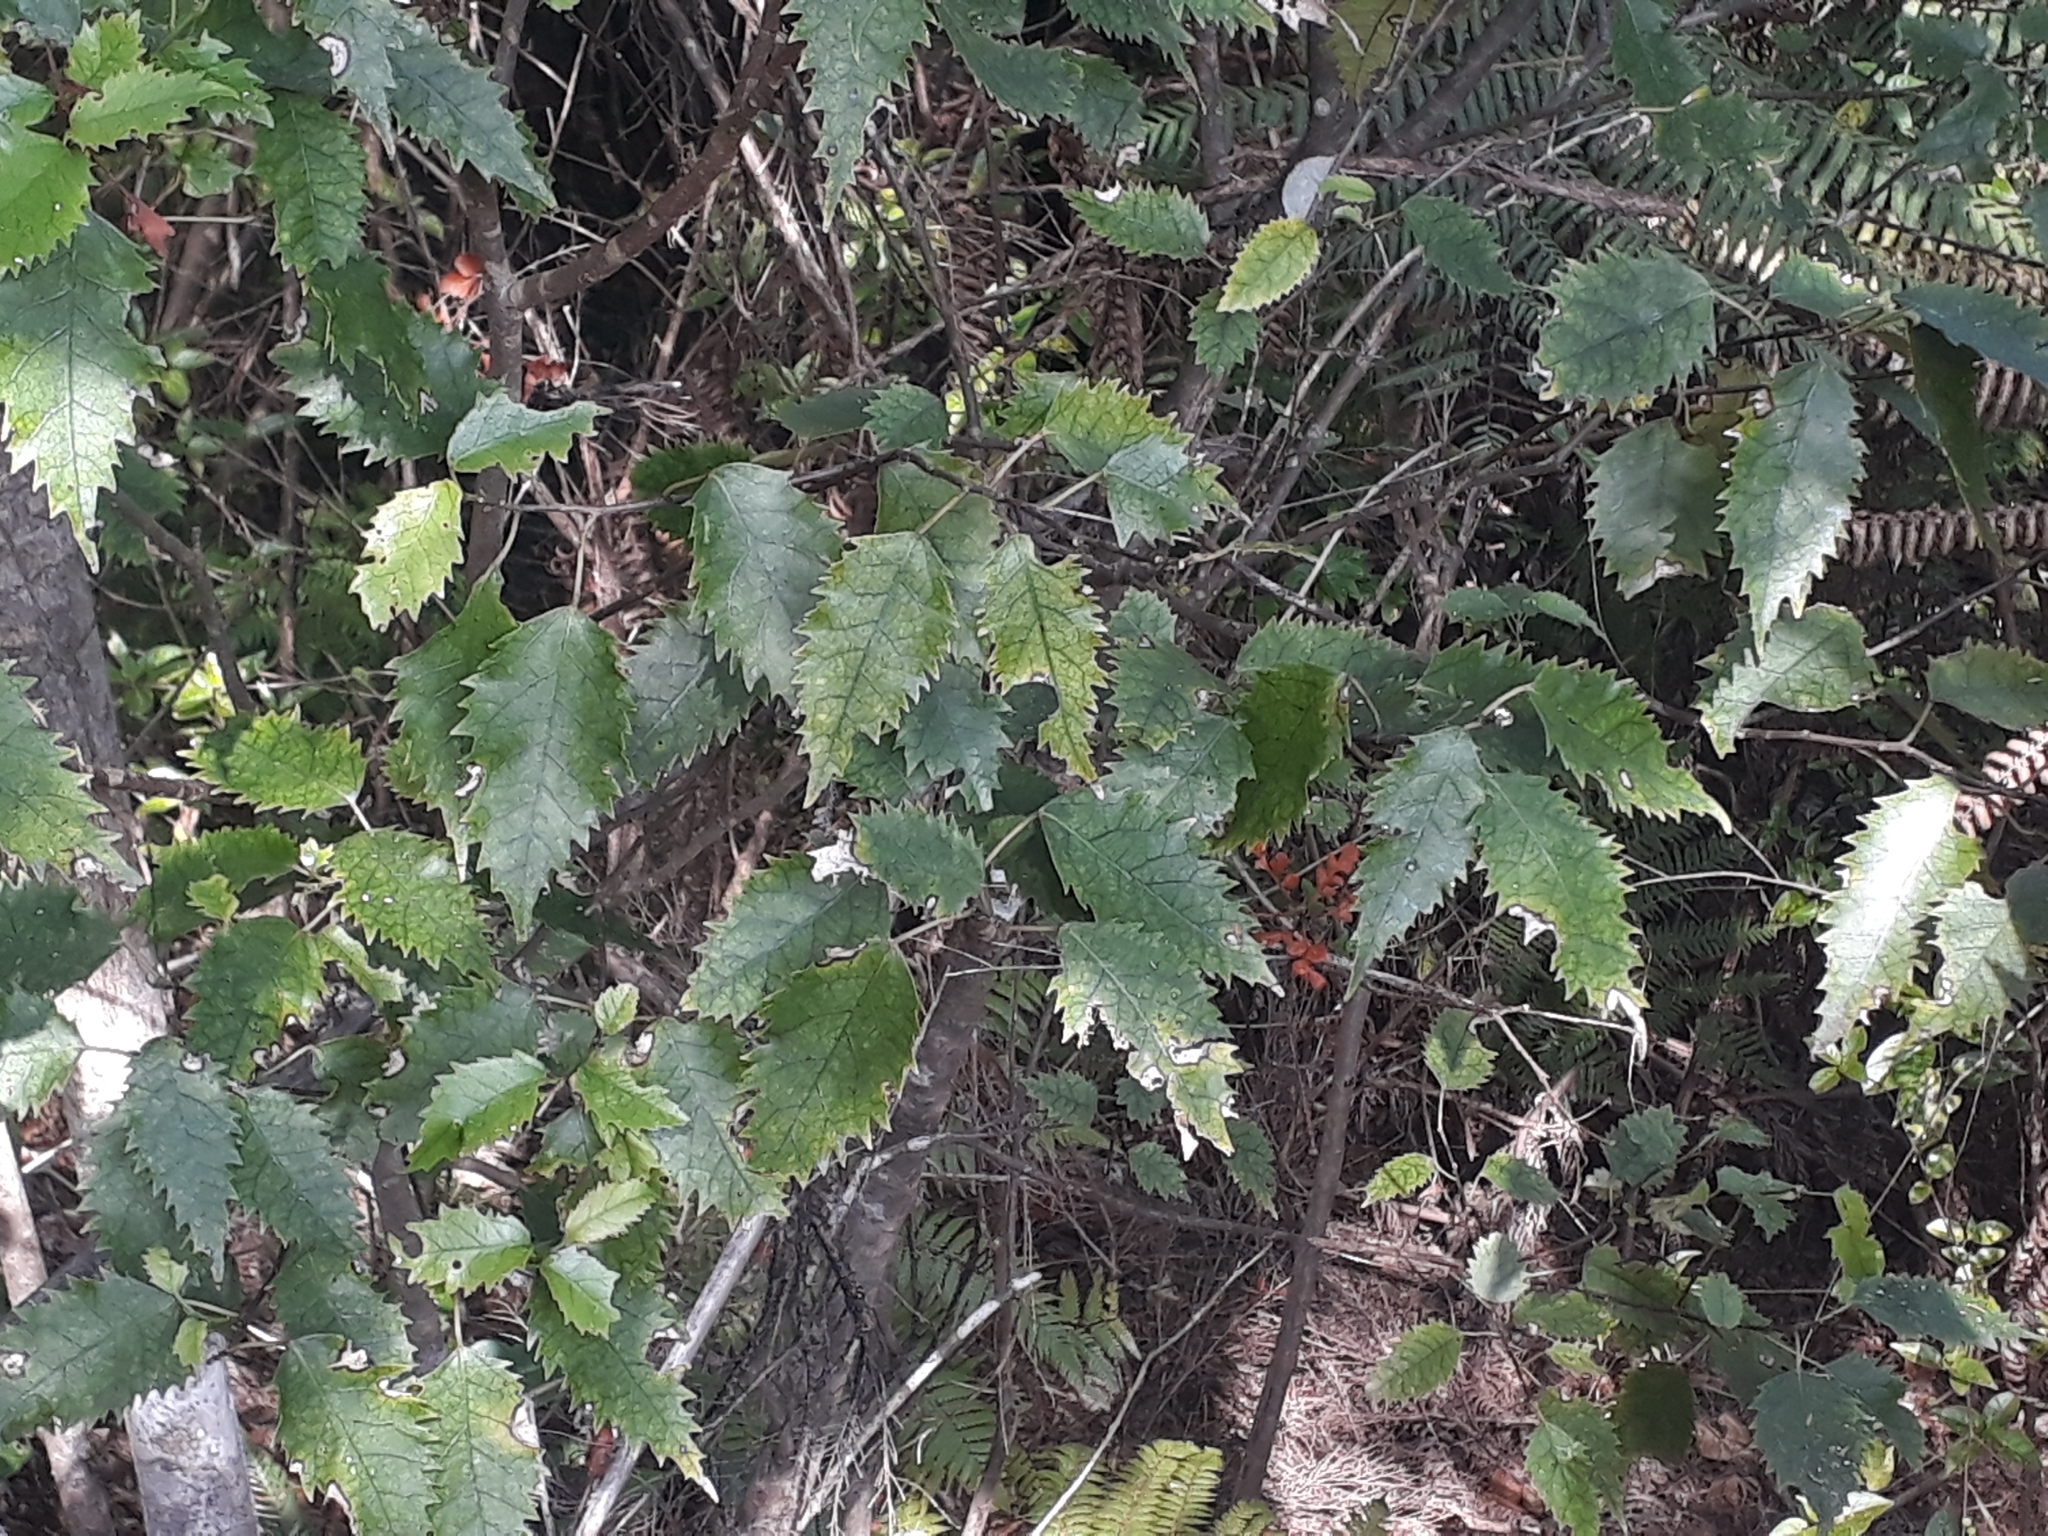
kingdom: Plantae
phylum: Tracheophyta
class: Magnoliopsida
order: Malvales
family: Malvaceae
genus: Hoheria
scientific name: Hoheria populnea
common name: Lacebark
